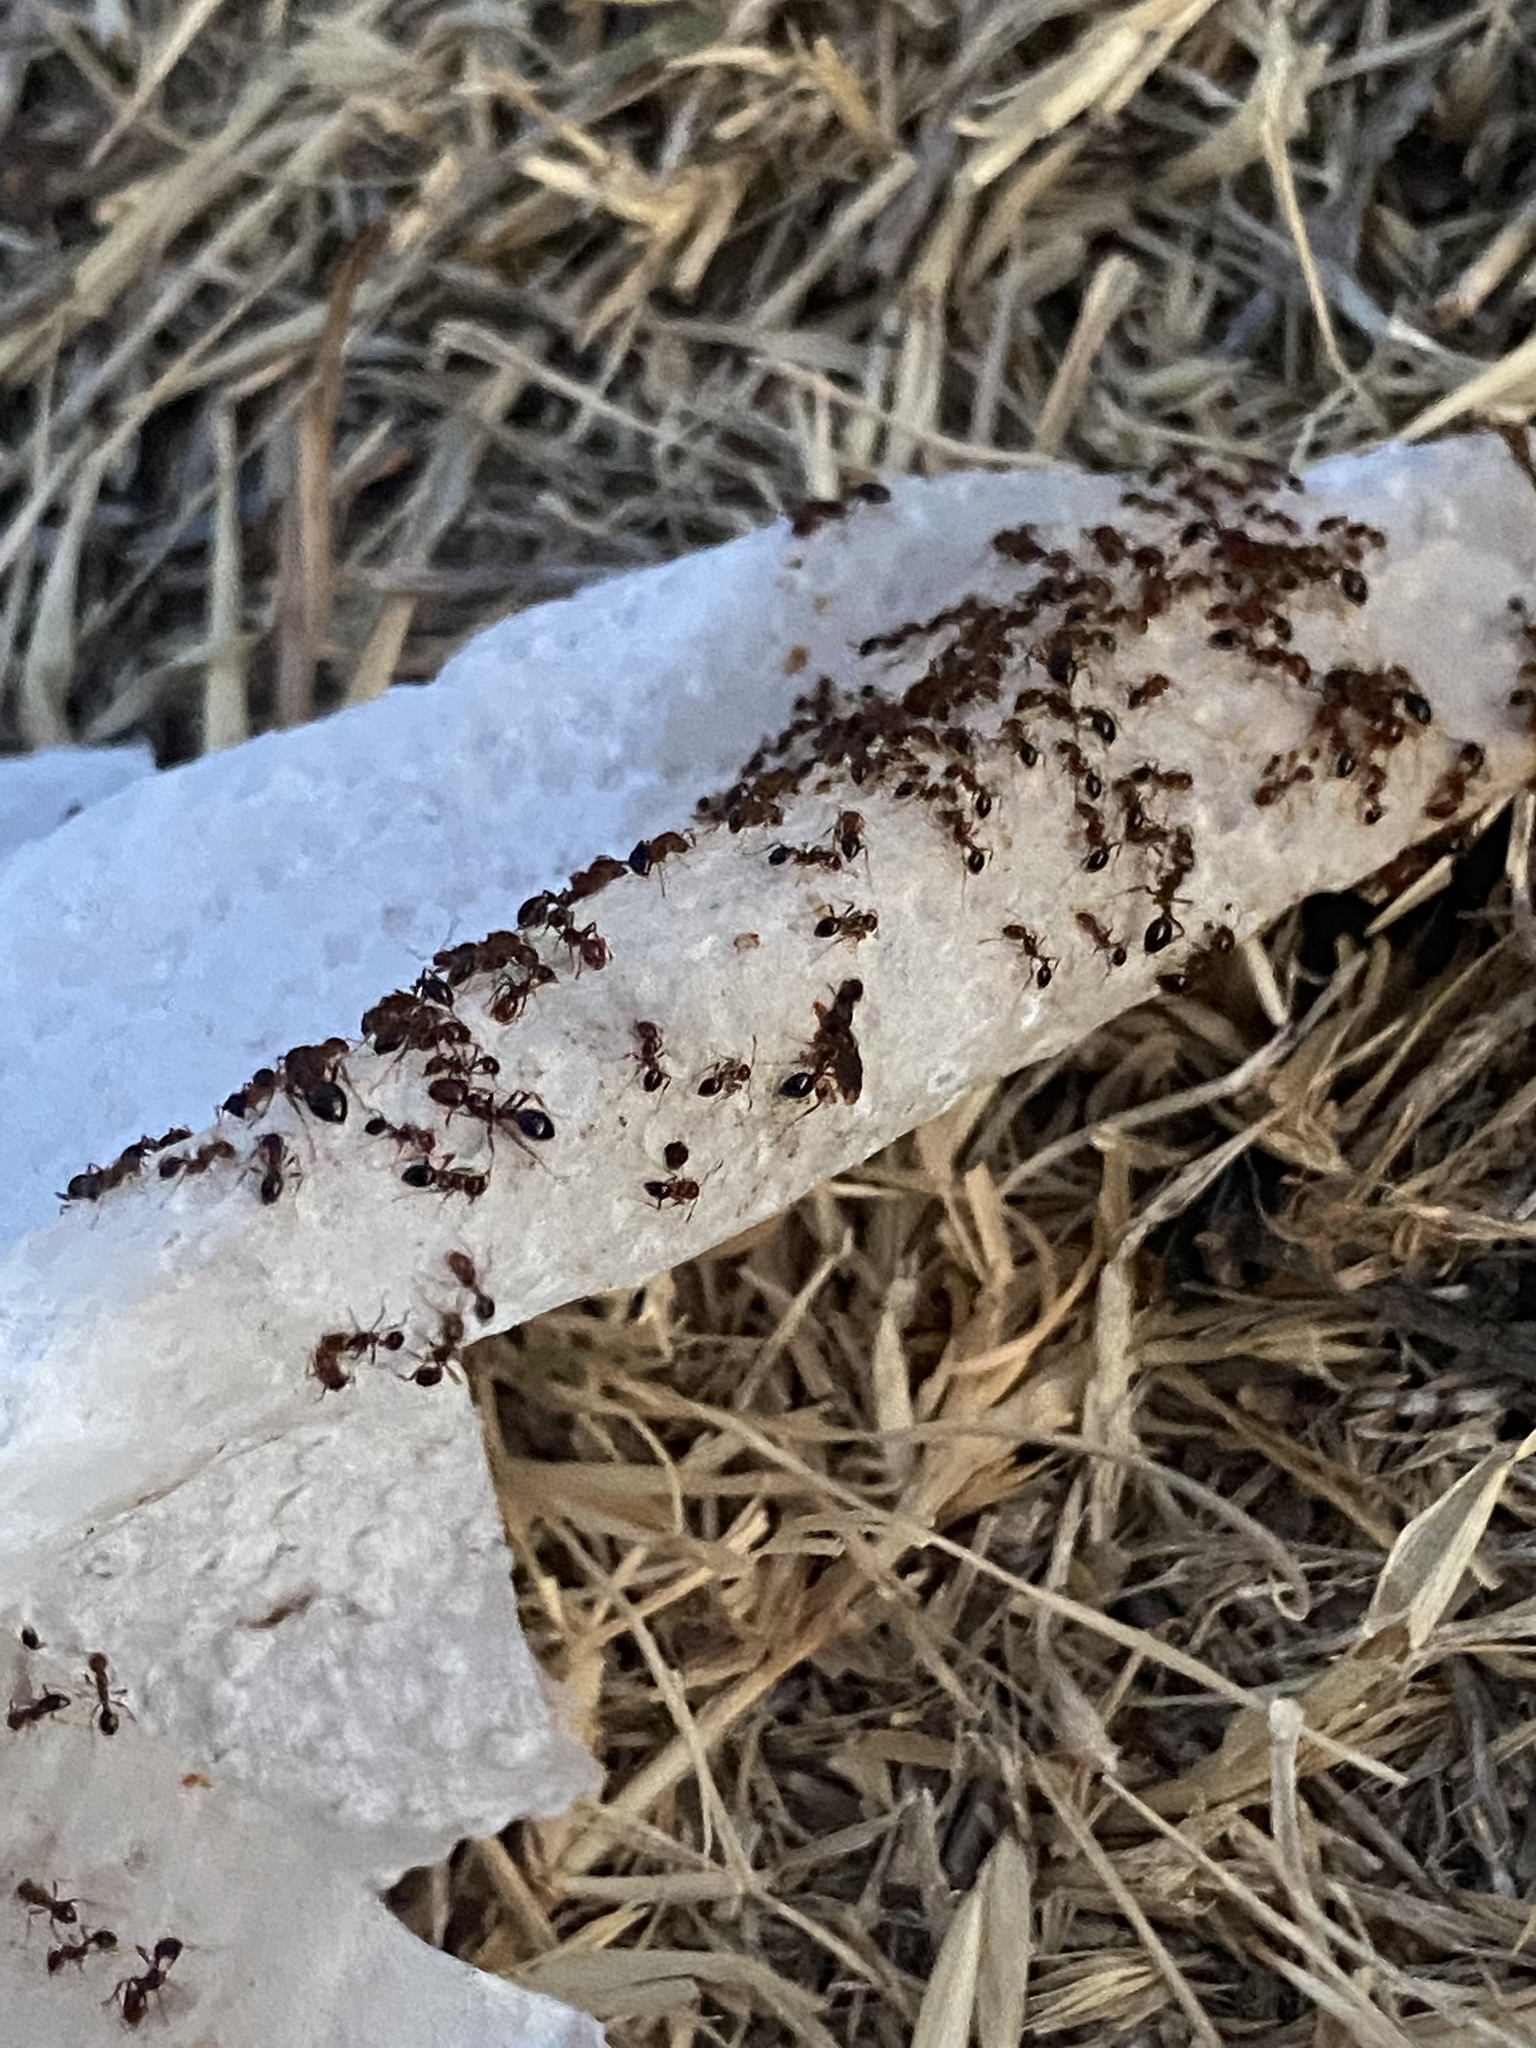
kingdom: Animalia
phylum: Arthropoda
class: Insecta
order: Hymenoptera
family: Formicidae
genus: Solenopsis
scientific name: Solenopsis invicta
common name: Red imported fire ant
